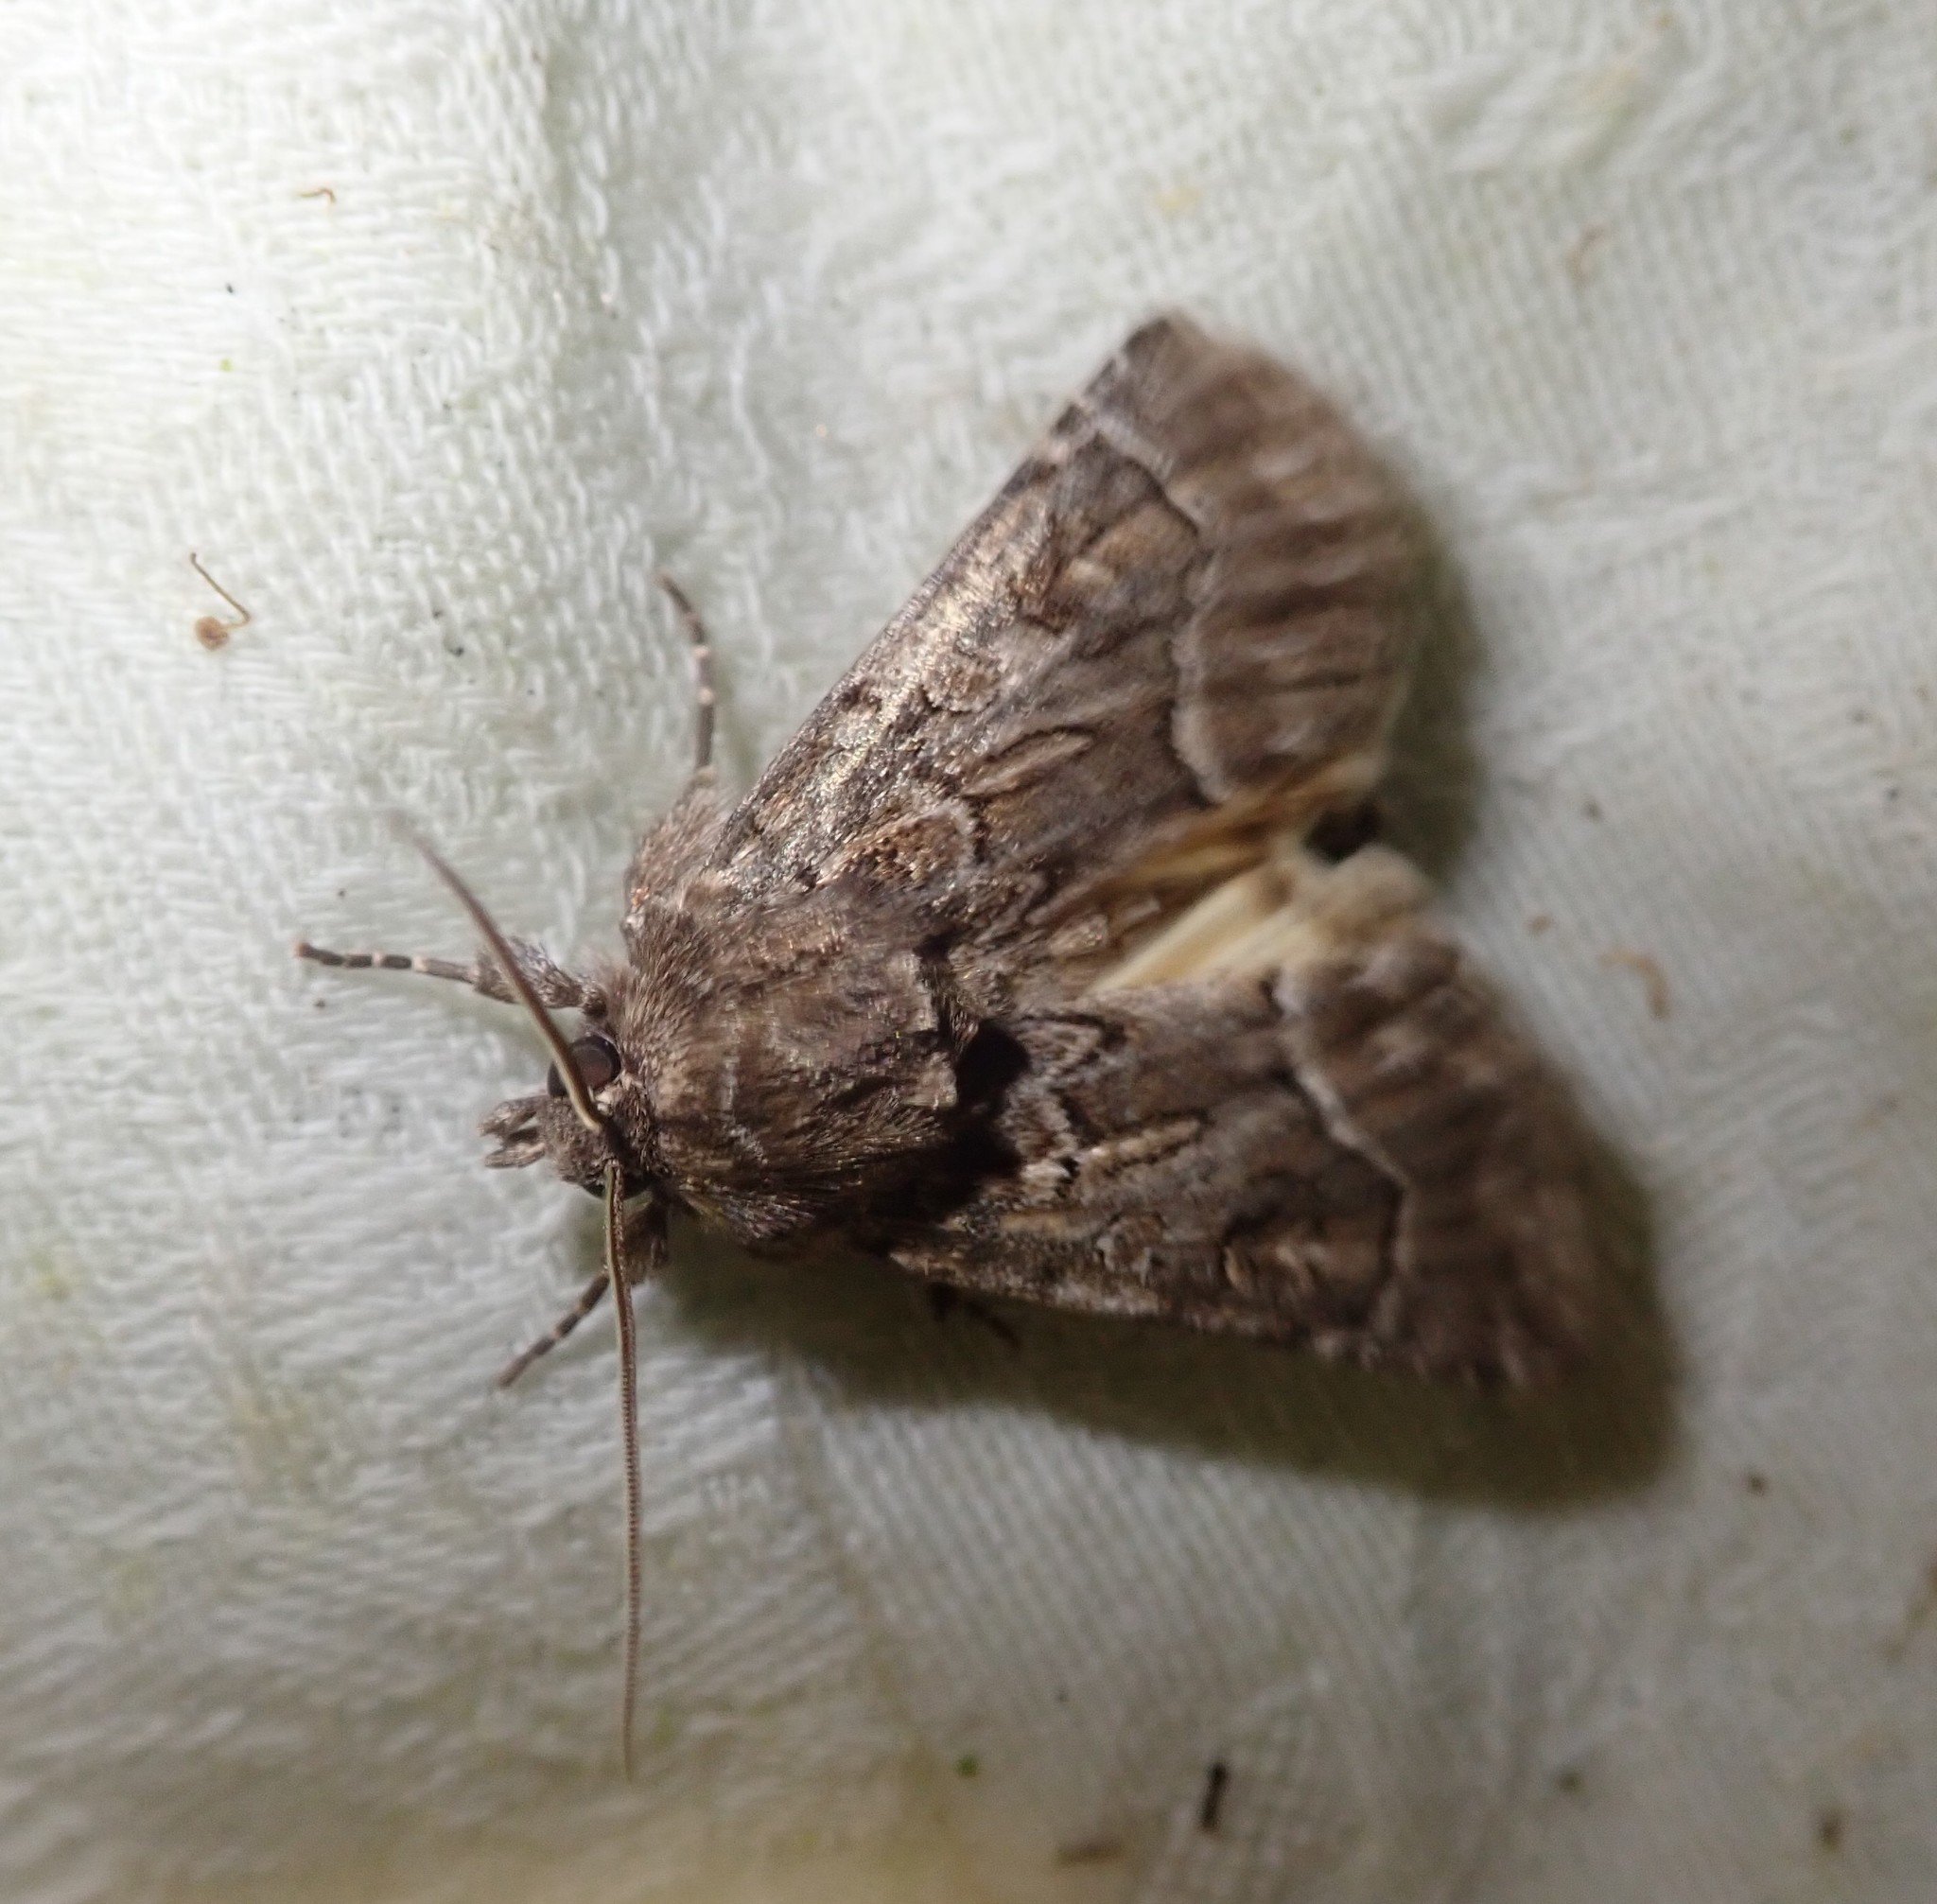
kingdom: Animalia
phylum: Arthropoda
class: Insecta
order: Lepidoptera
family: Noctuidae
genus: Thalpophila
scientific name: Thalpophila matura
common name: Straw underwing
